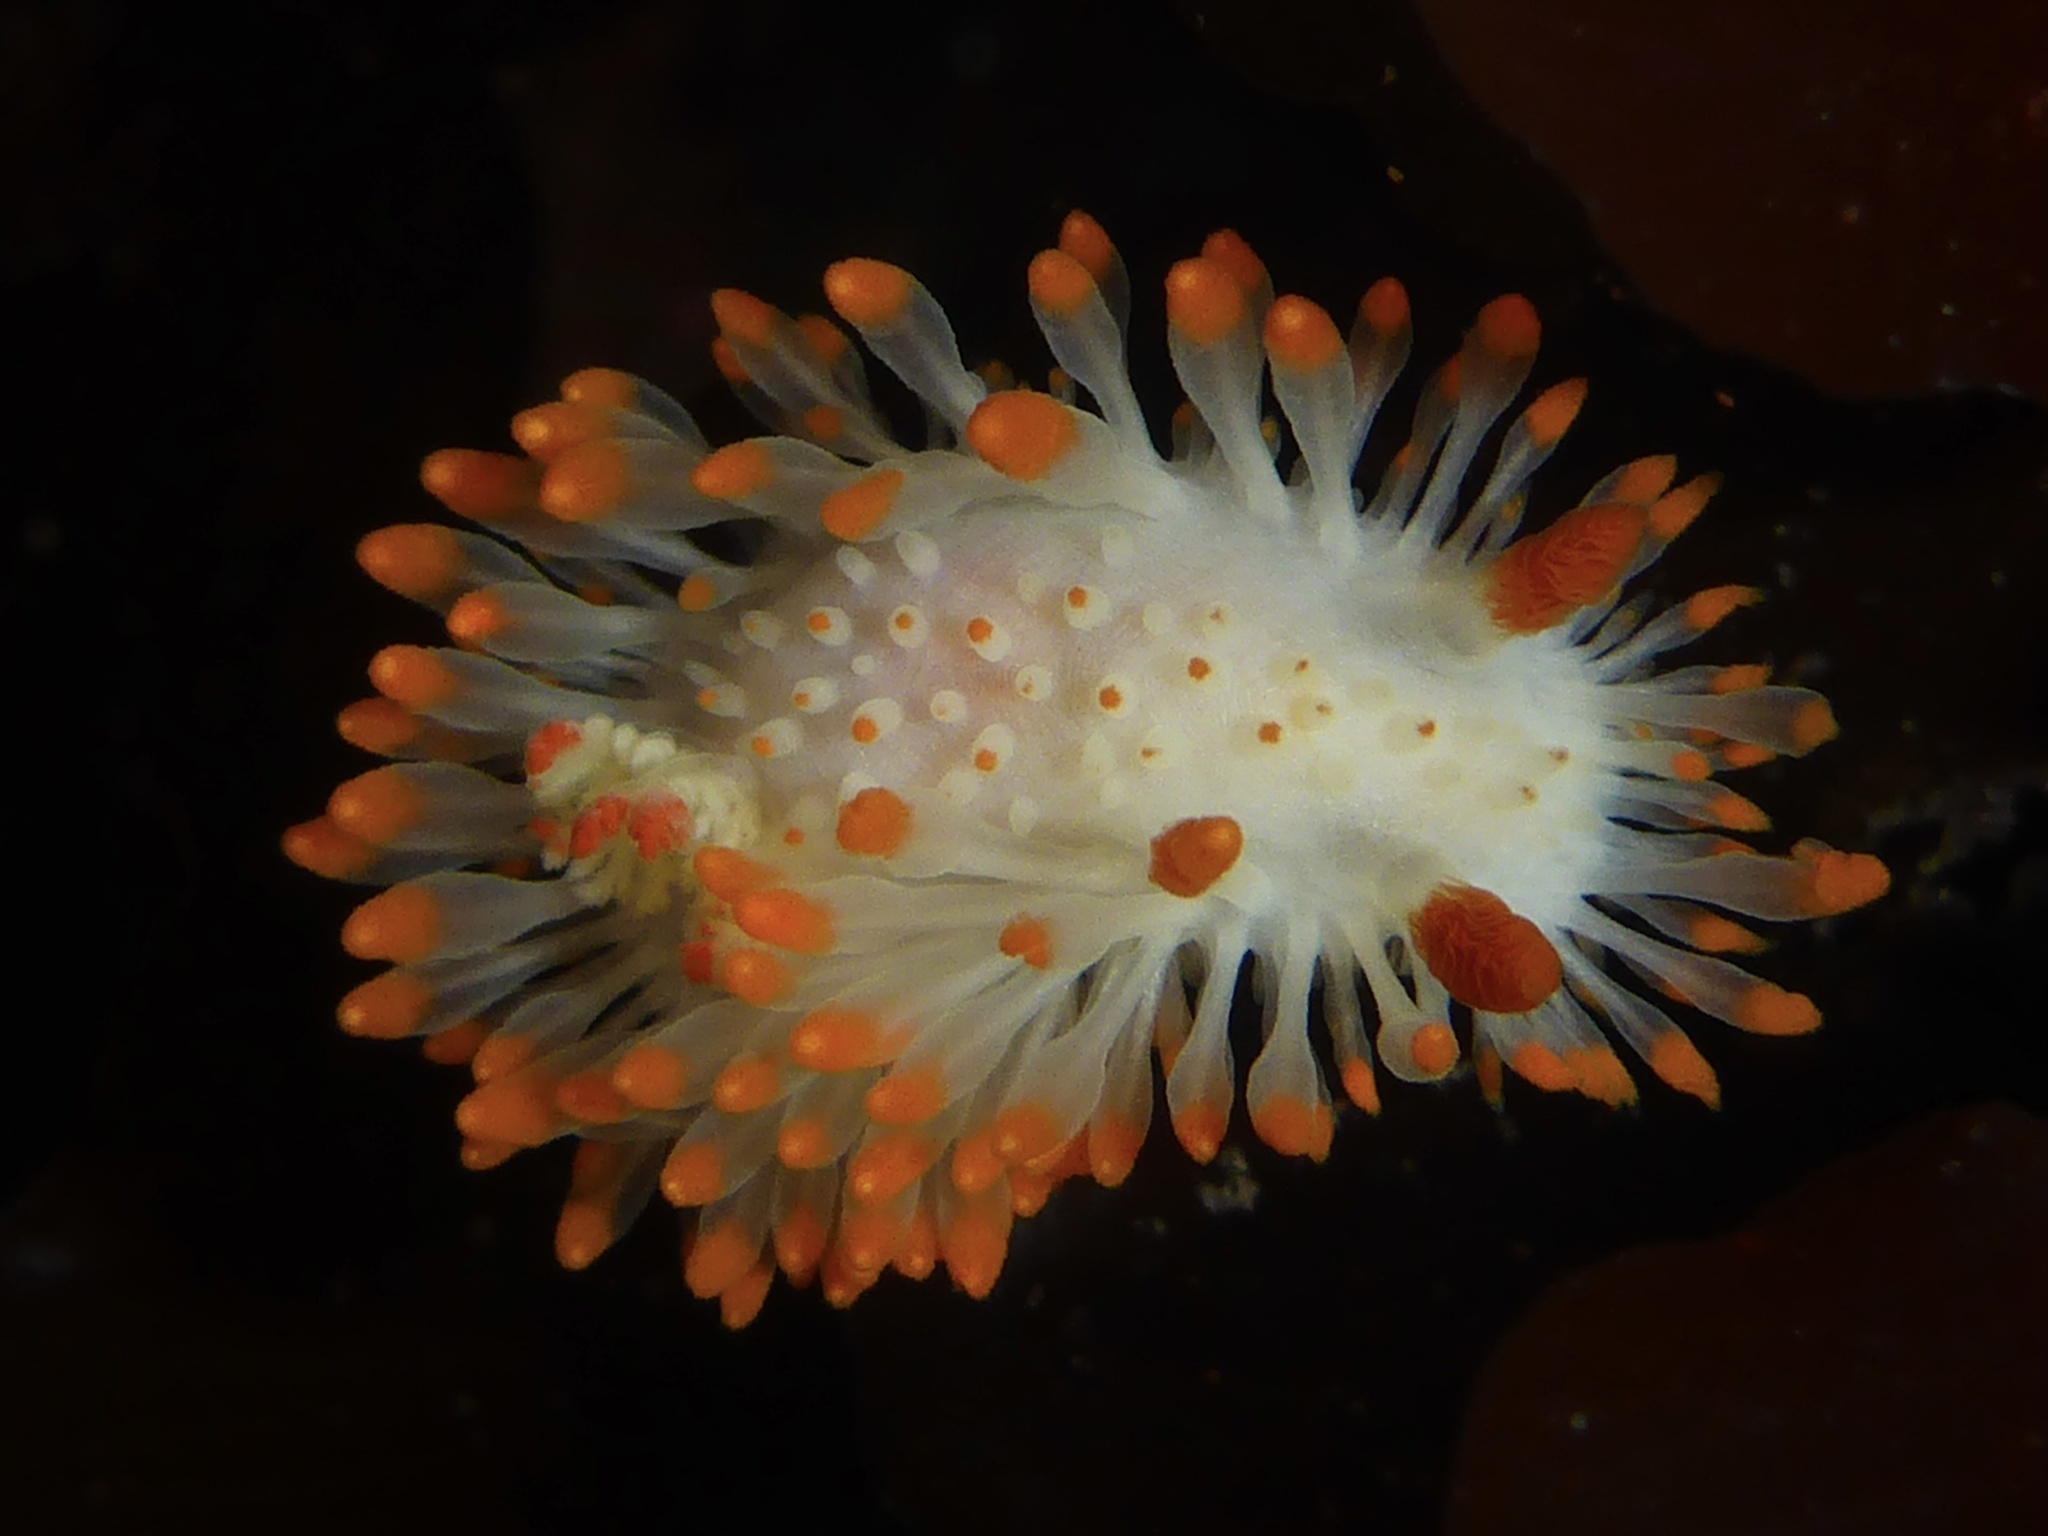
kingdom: Animalia
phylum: Mollusca
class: Gastropoda
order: Nudibranchia
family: Polyceridae
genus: Limacia
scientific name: Limacia cockerelli
